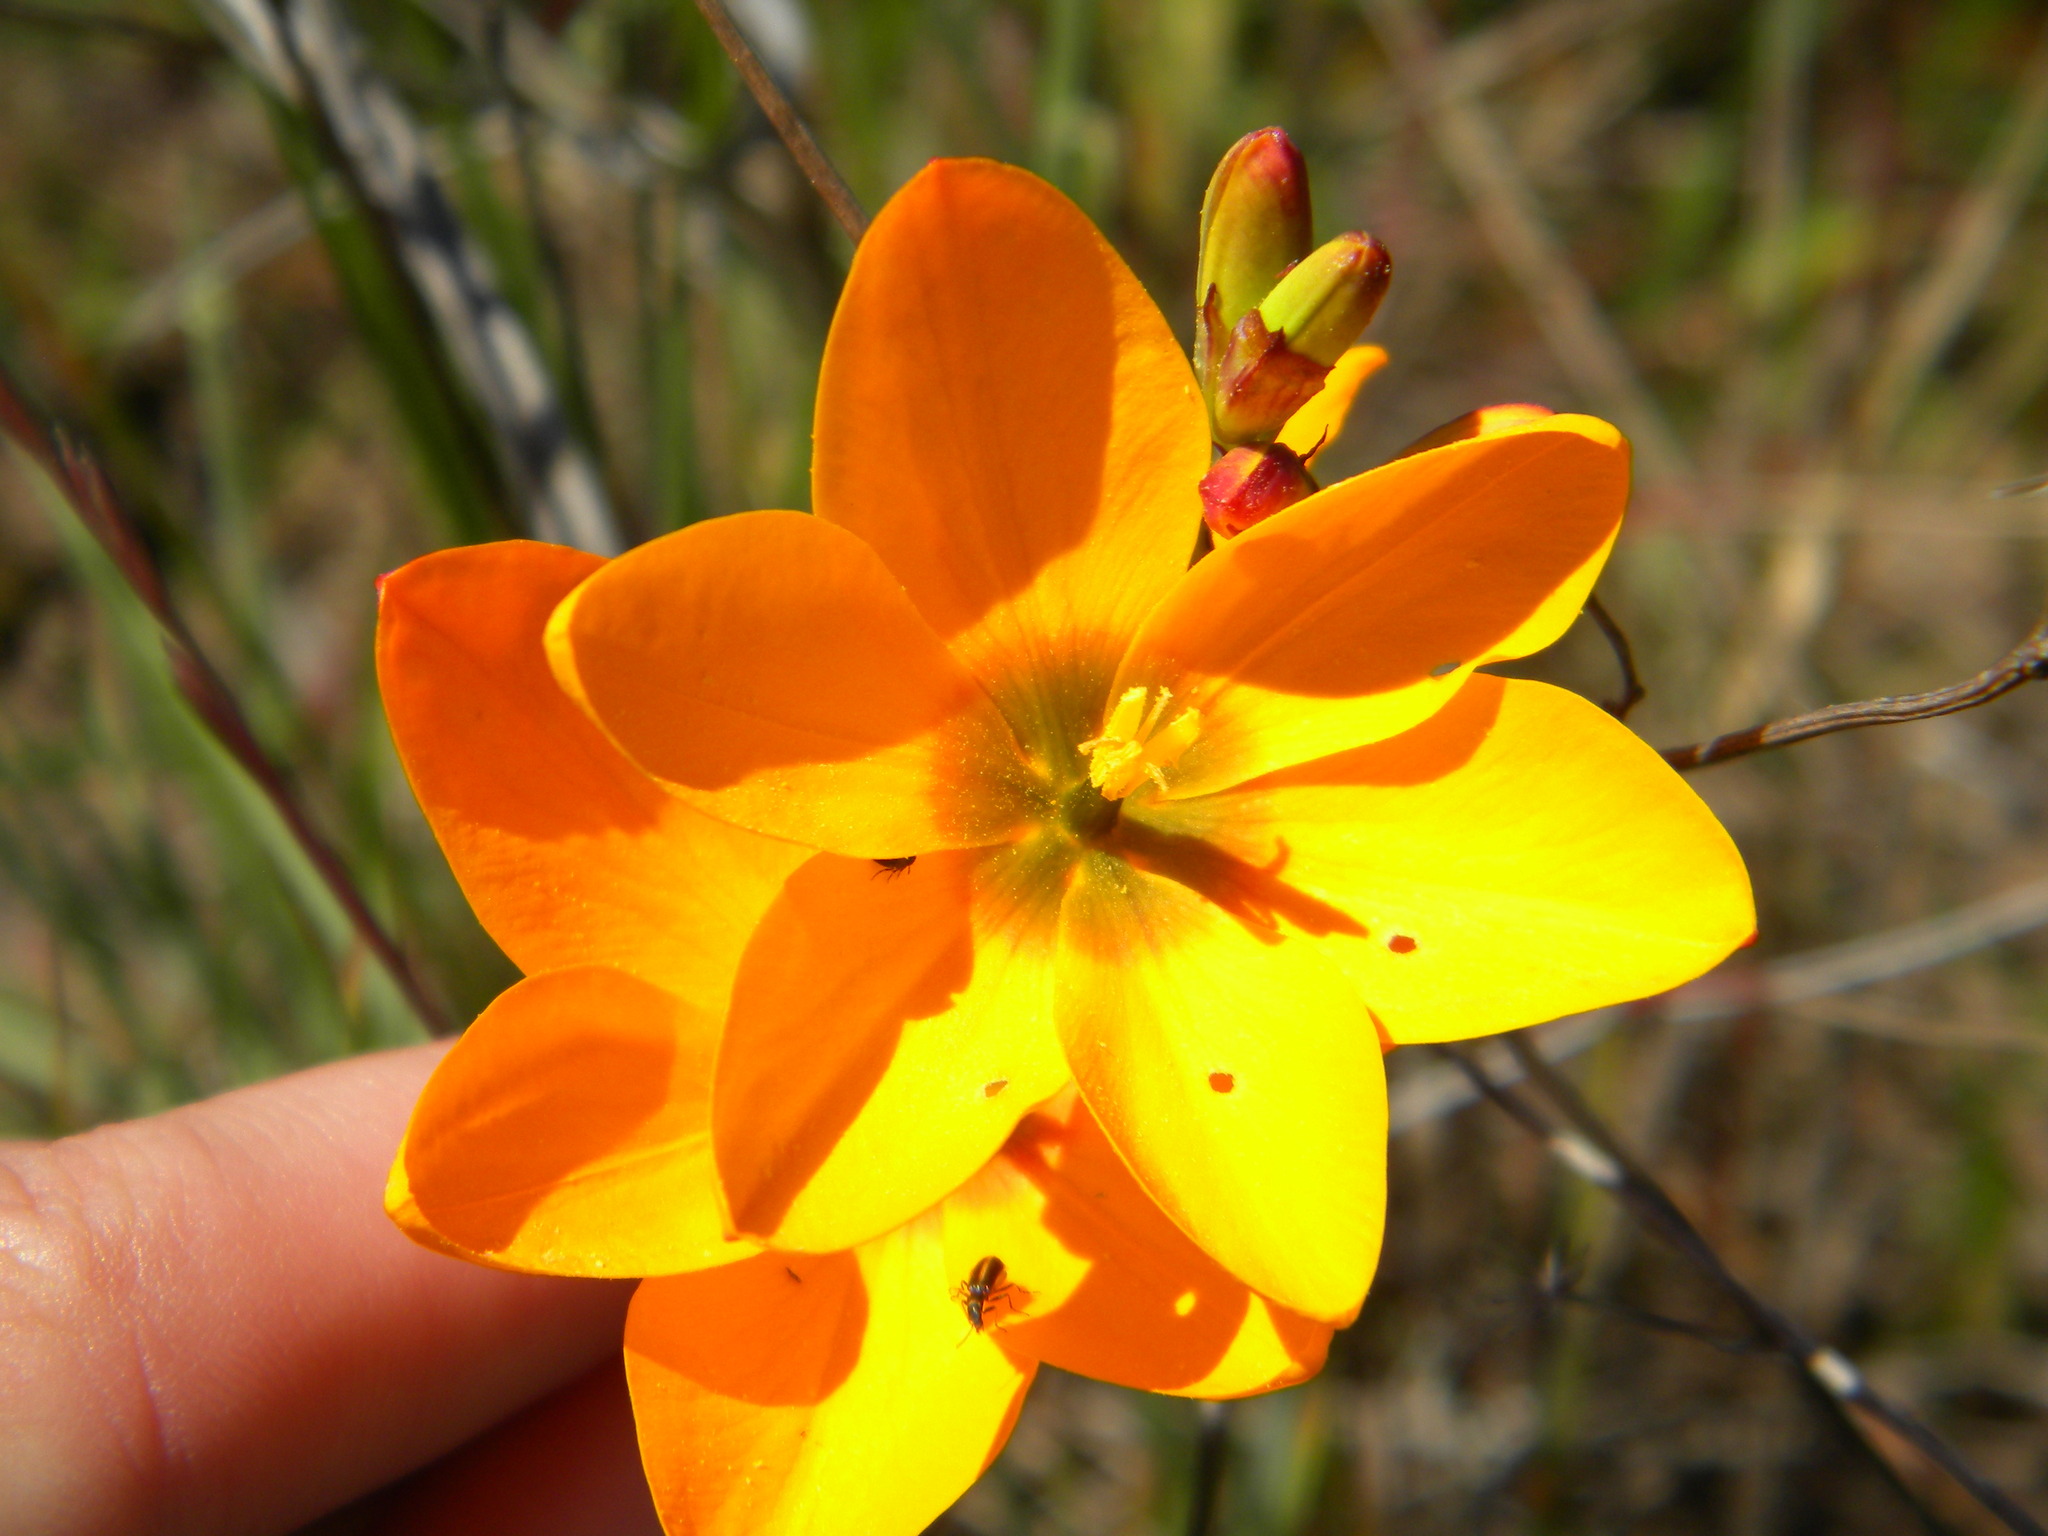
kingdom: Plantae
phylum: Tracheophyta
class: Liliopsida
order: Asparagales
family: Iridaceae
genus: Ixia
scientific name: Ixia curta
